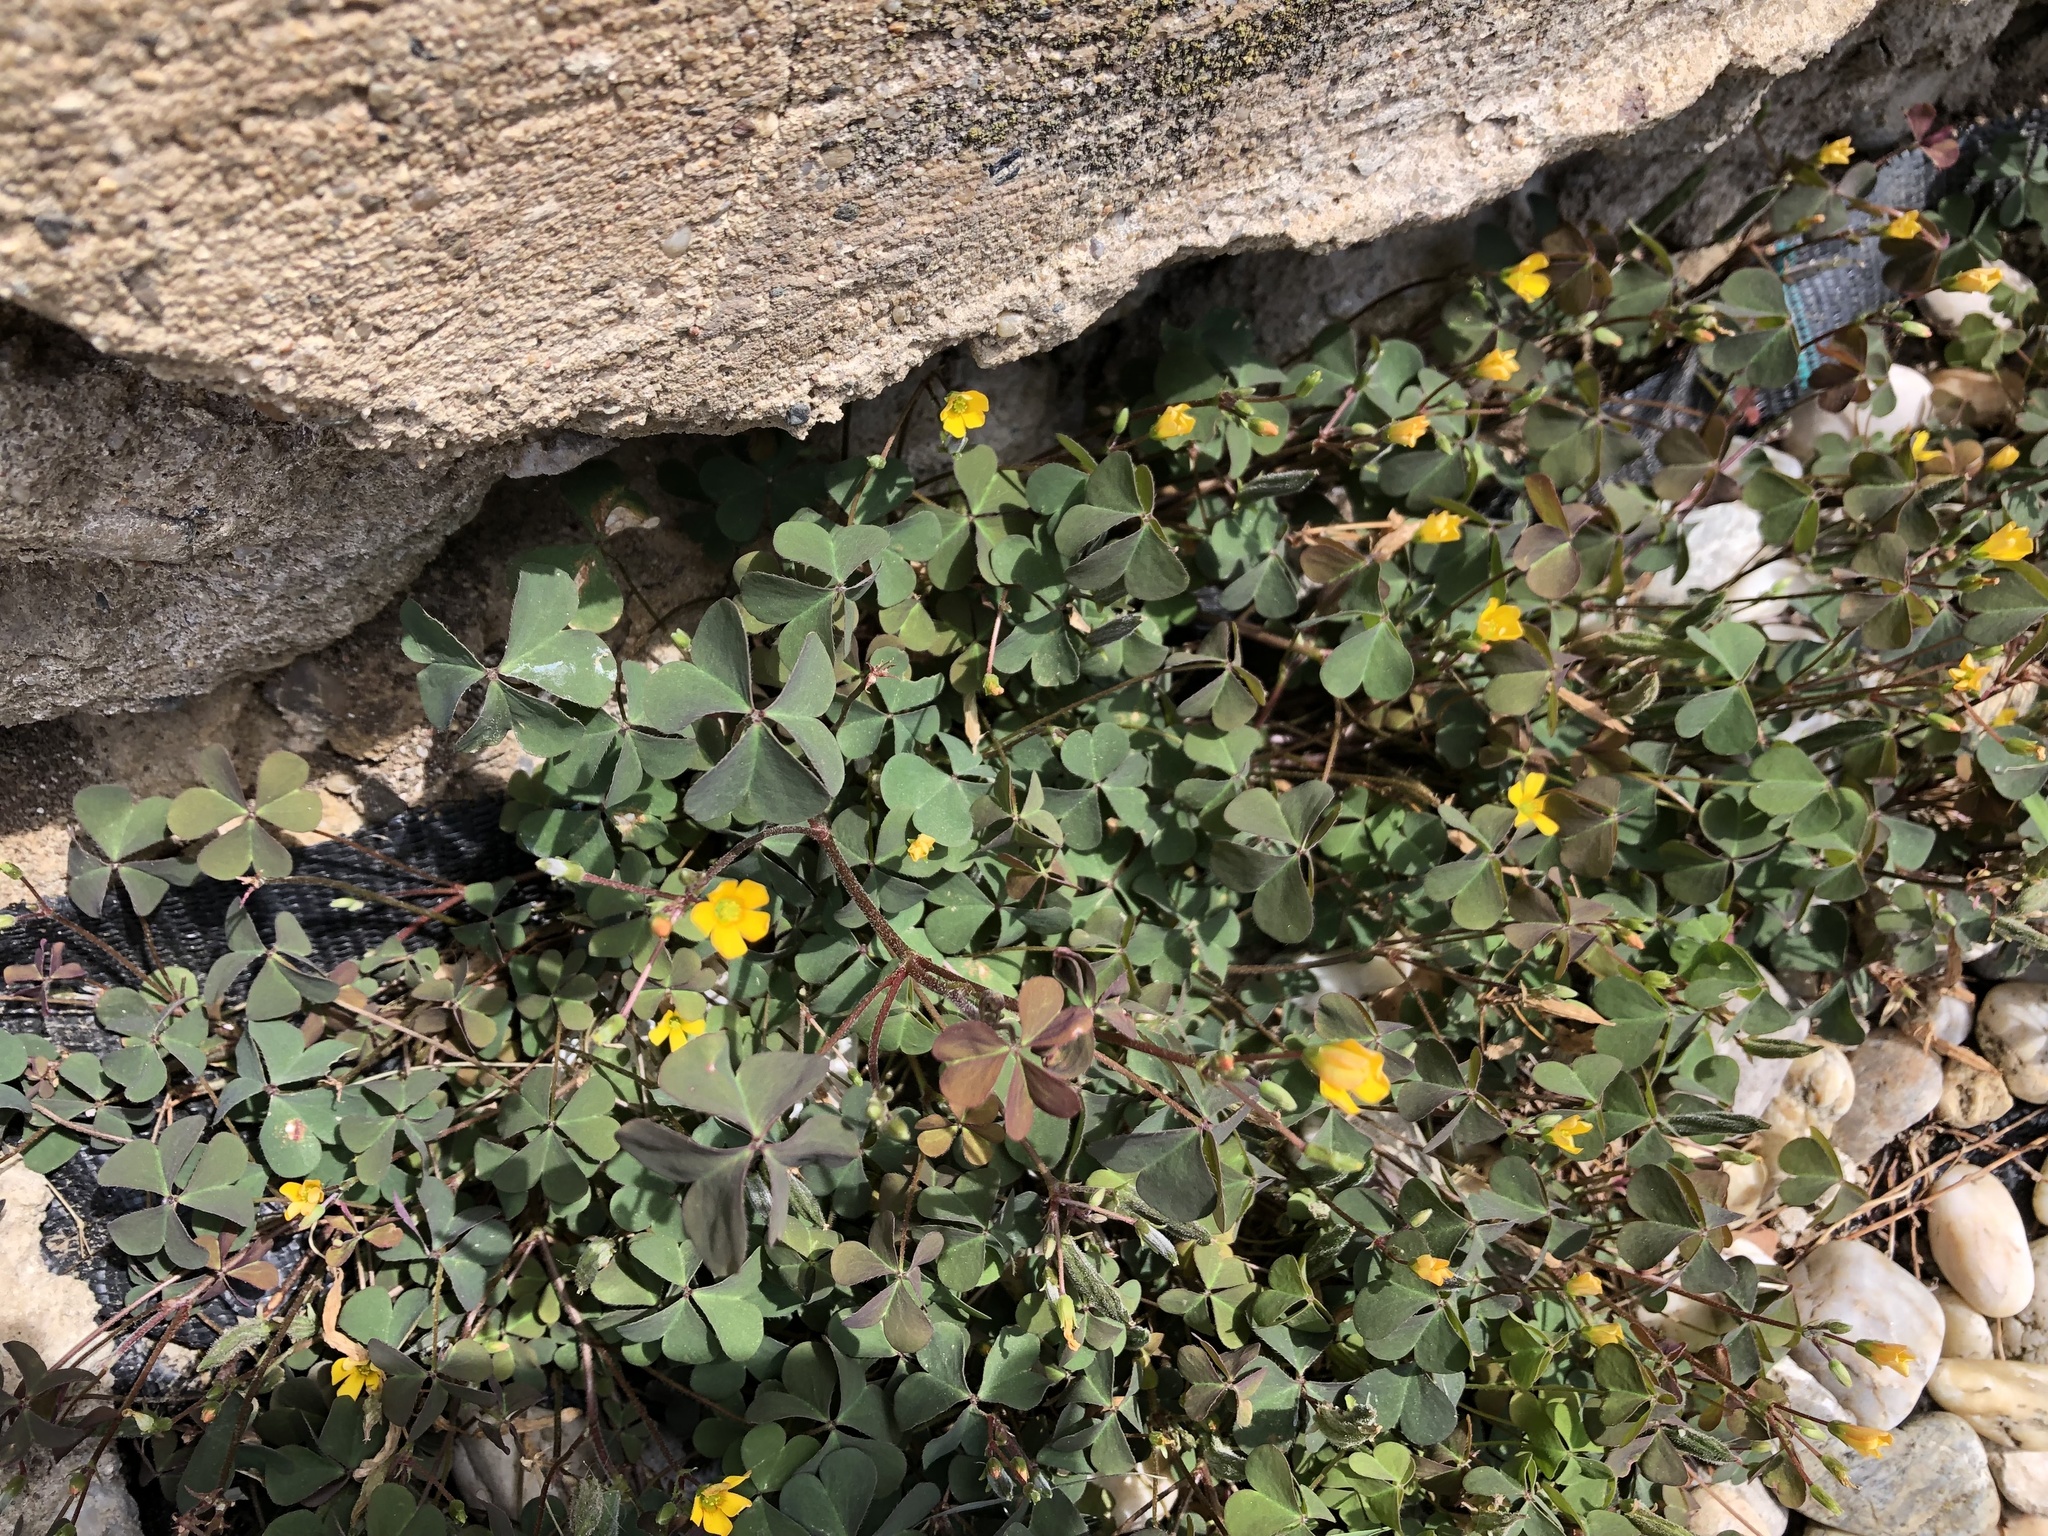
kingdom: Plantae
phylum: Tracheophyta
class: Magnoliopsida
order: Oxalidales
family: Oxalidaceae
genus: Oxalis
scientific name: Oxalis corniculata
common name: Procumbent yellow-sorrel
